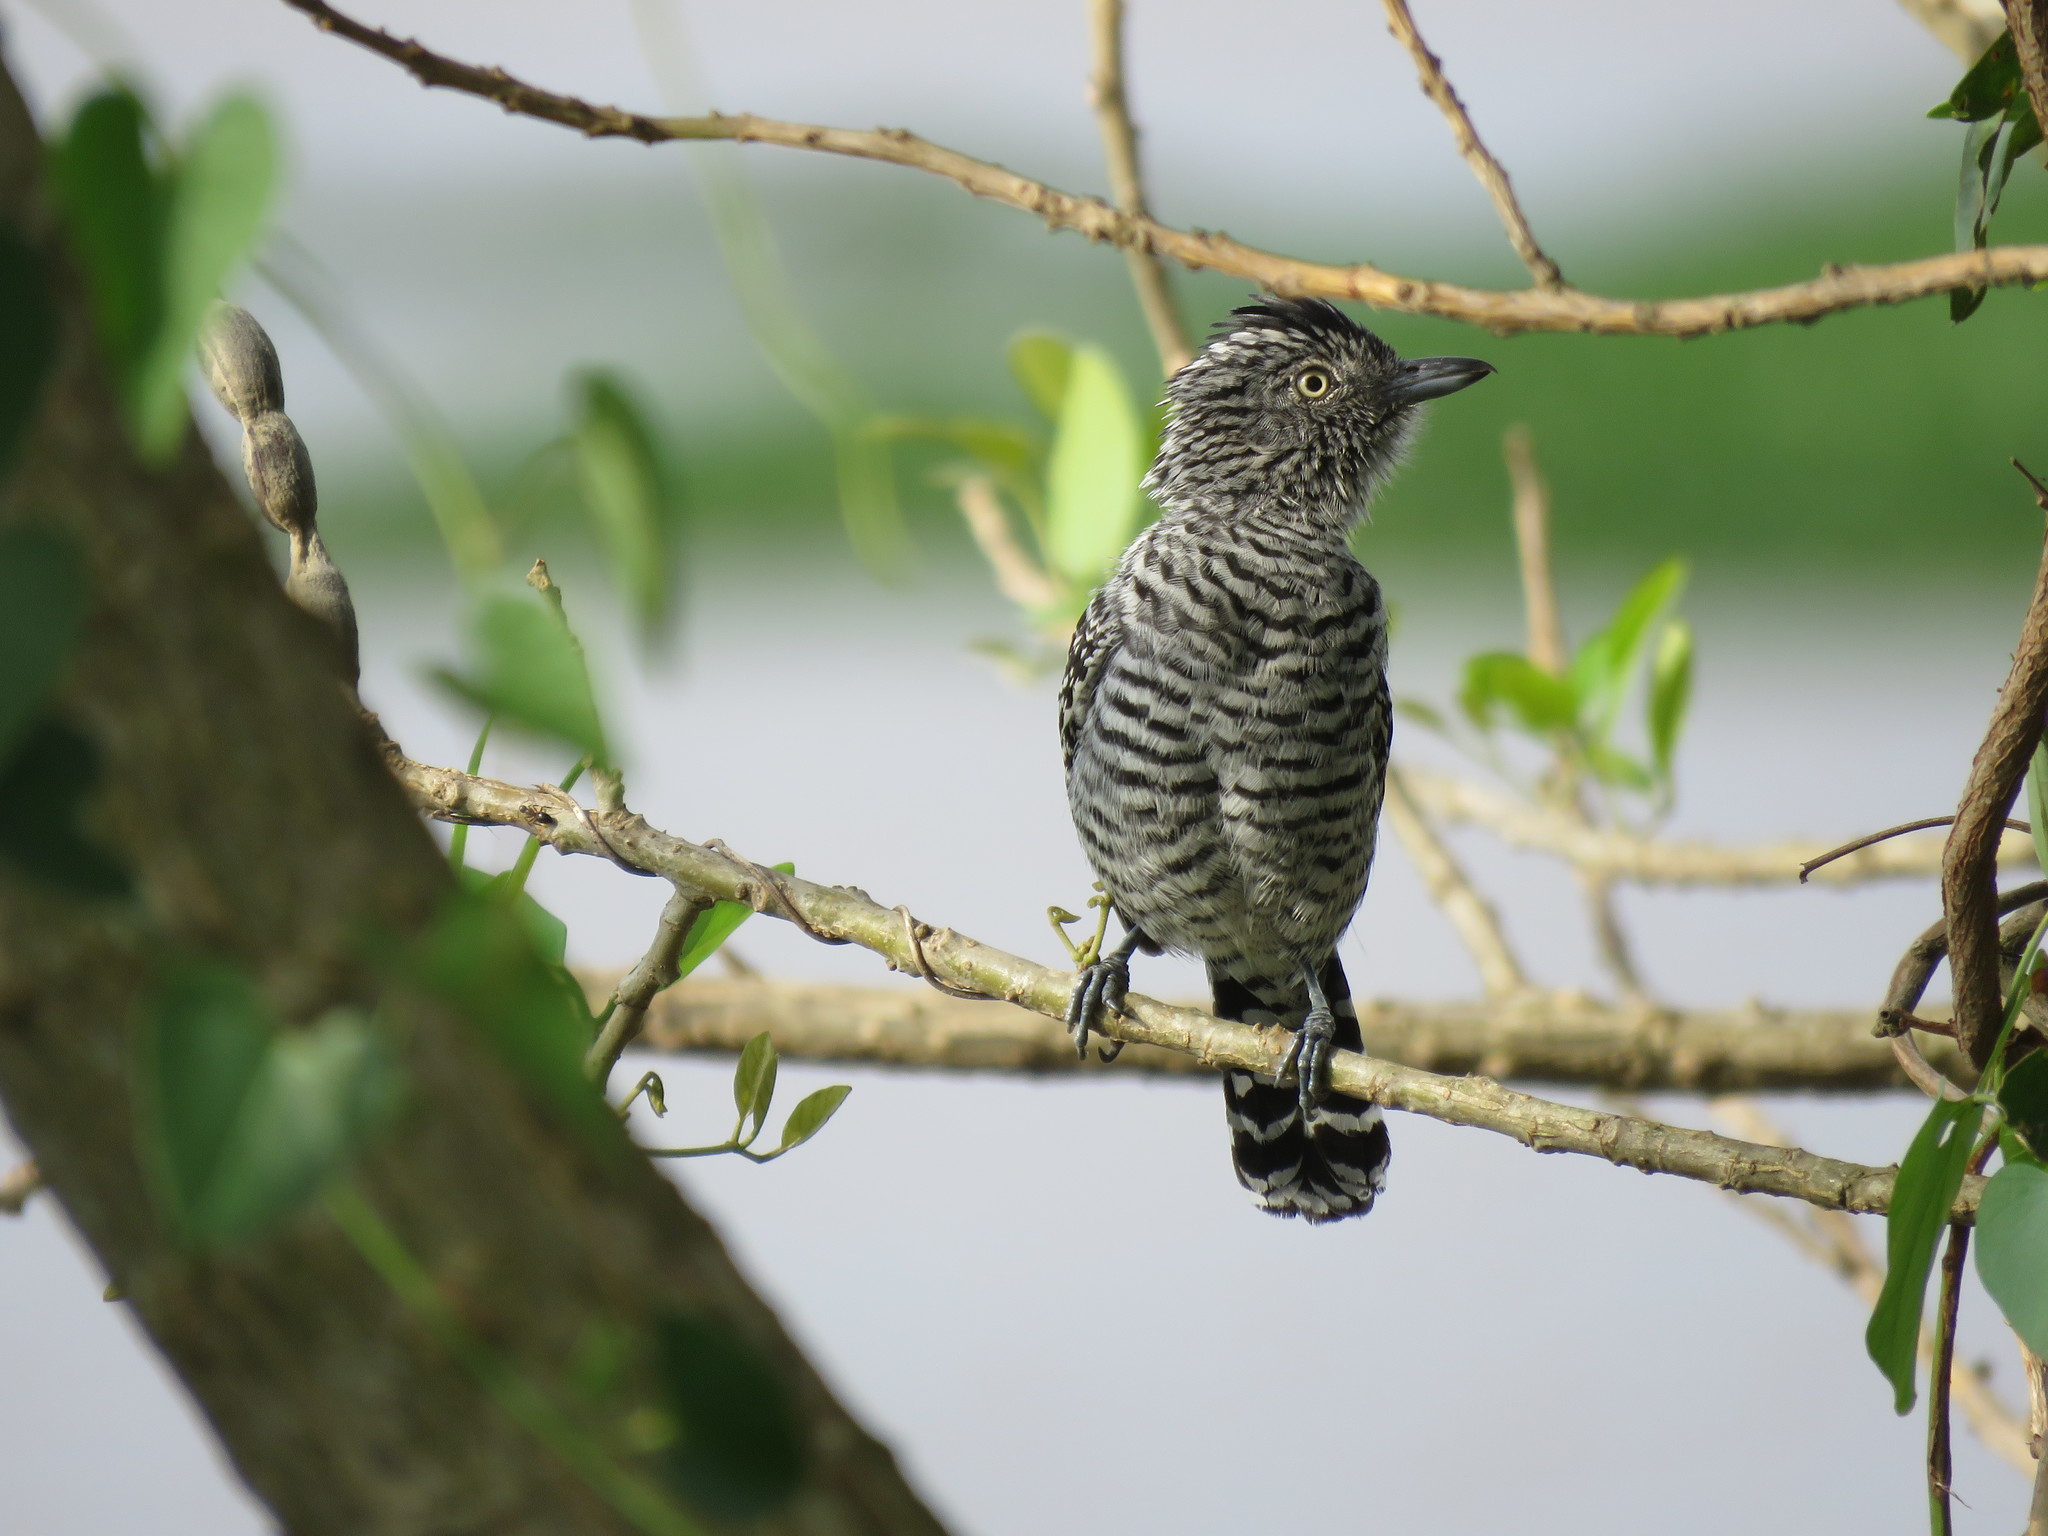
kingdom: Animalia
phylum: Chordata
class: Aves
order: Passeriformes
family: Thamnophilidae
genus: Thamnophilus
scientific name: Thamnophilus doliatus
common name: Barred antshrike
